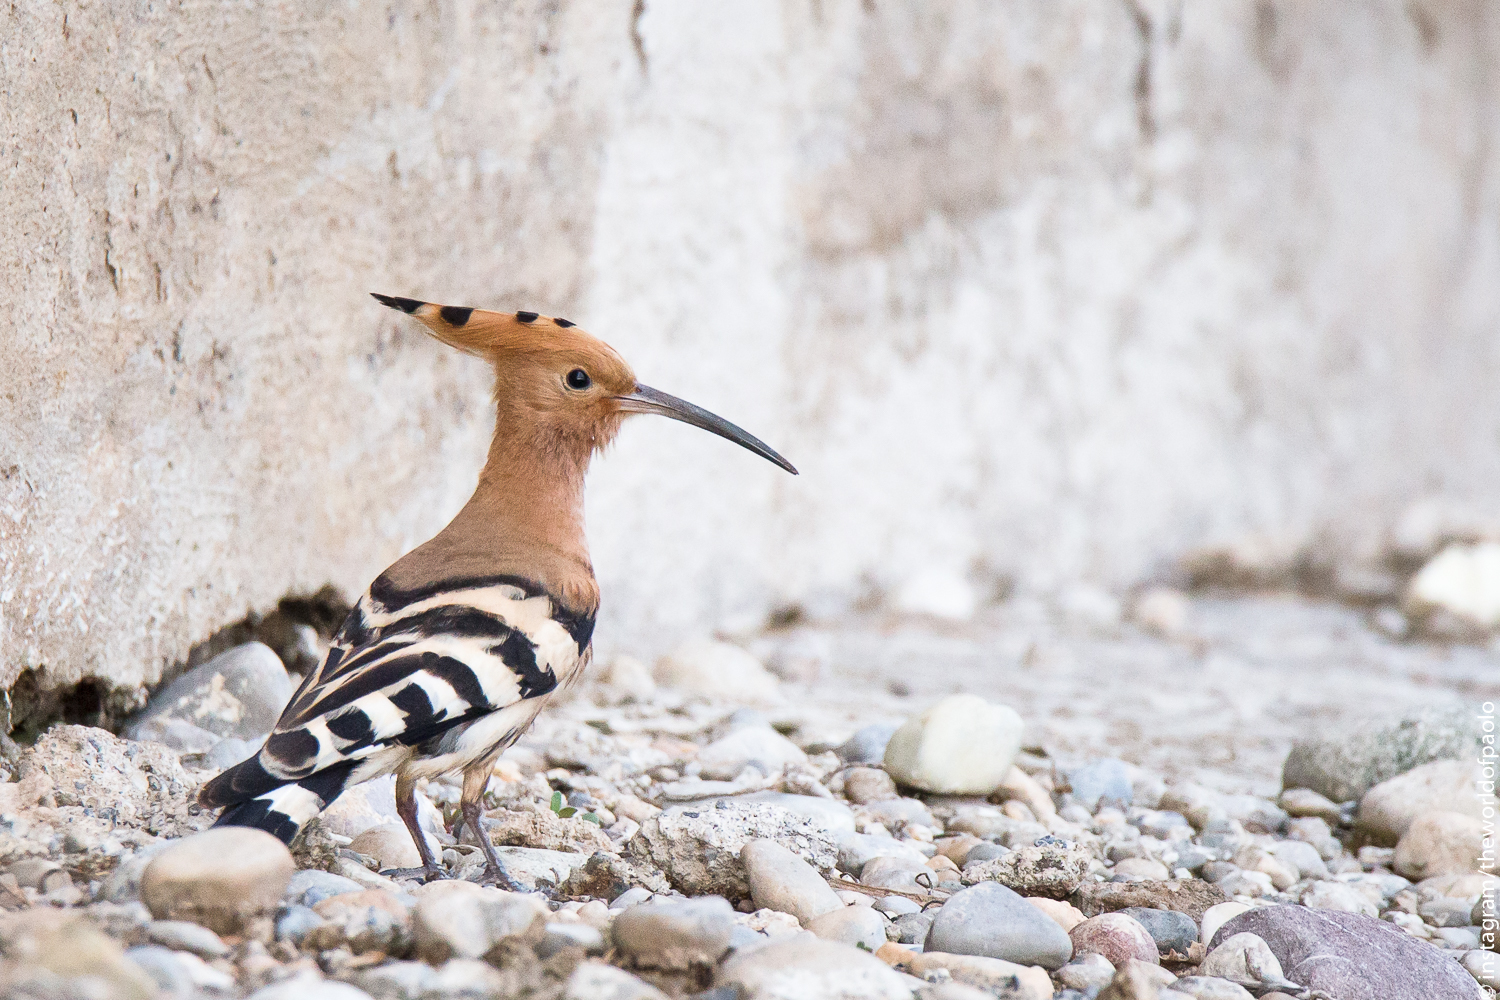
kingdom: Animalia
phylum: Chordata
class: Aves
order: Bucerotiformes
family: Upupidae
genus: Upupa
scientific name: Upupa epops
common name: Eurasian hoopoe
